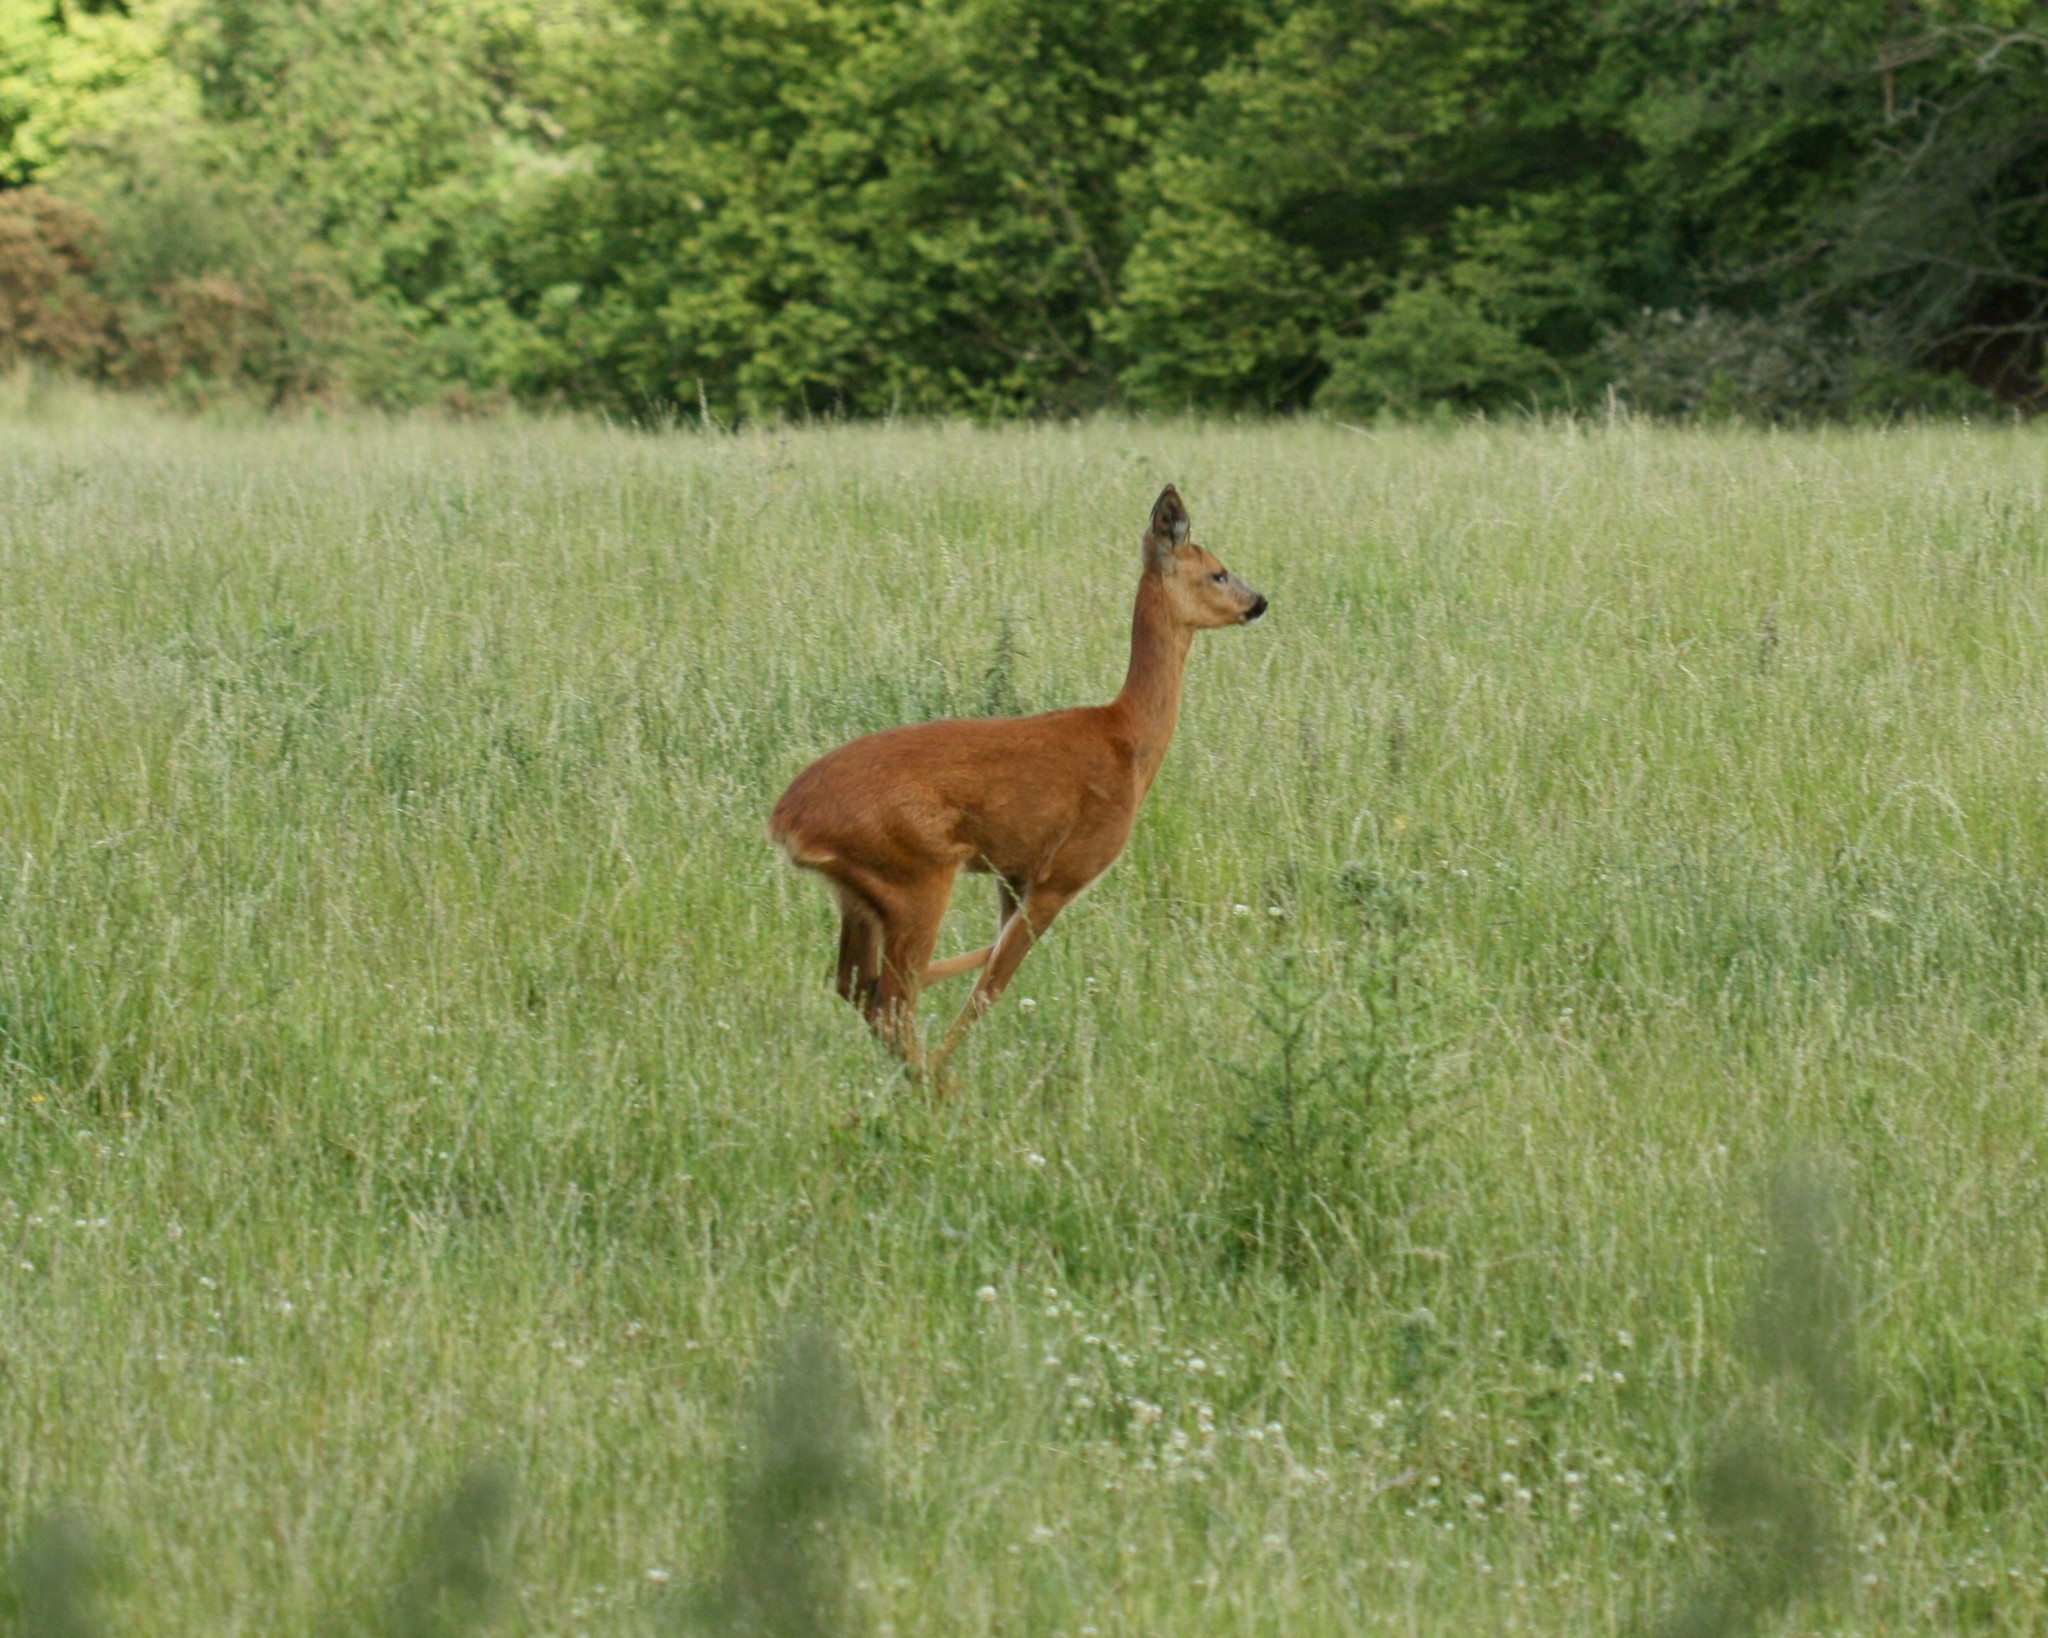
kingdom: Animalia
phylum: Chordata
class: Mammalia
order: Artiodactyla
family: Cervidae
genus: Capreolus
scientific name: Capreolus capreolus
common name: Western roe deer
